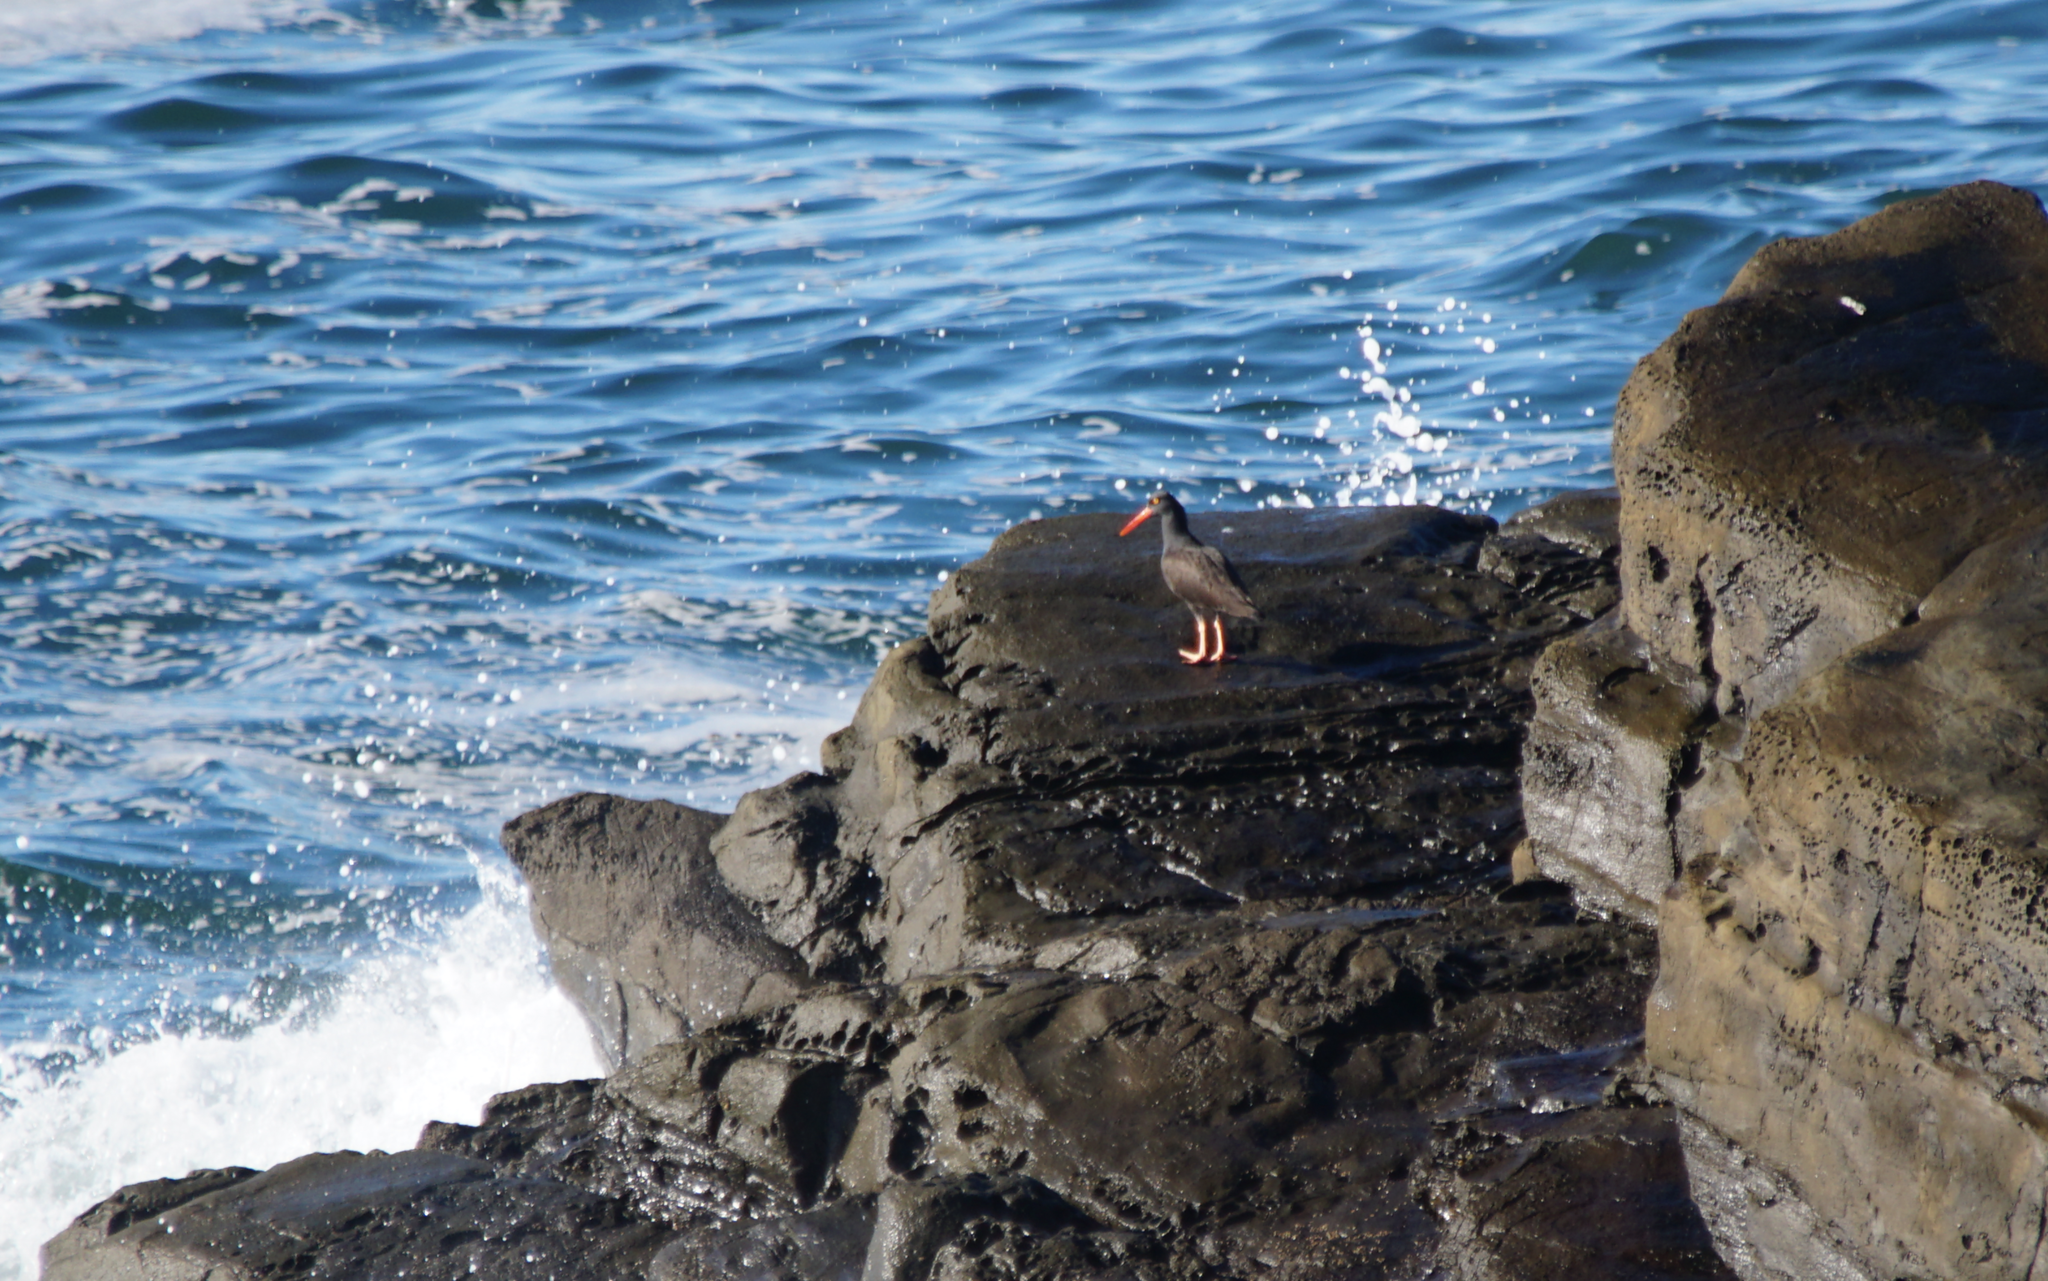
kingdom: Animalia
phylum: Chordata
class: Aves
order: Charadriiformes
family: Haematopodidae
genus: Haematopus
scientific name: Haematopus bachmani
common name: Black oystercatcher
